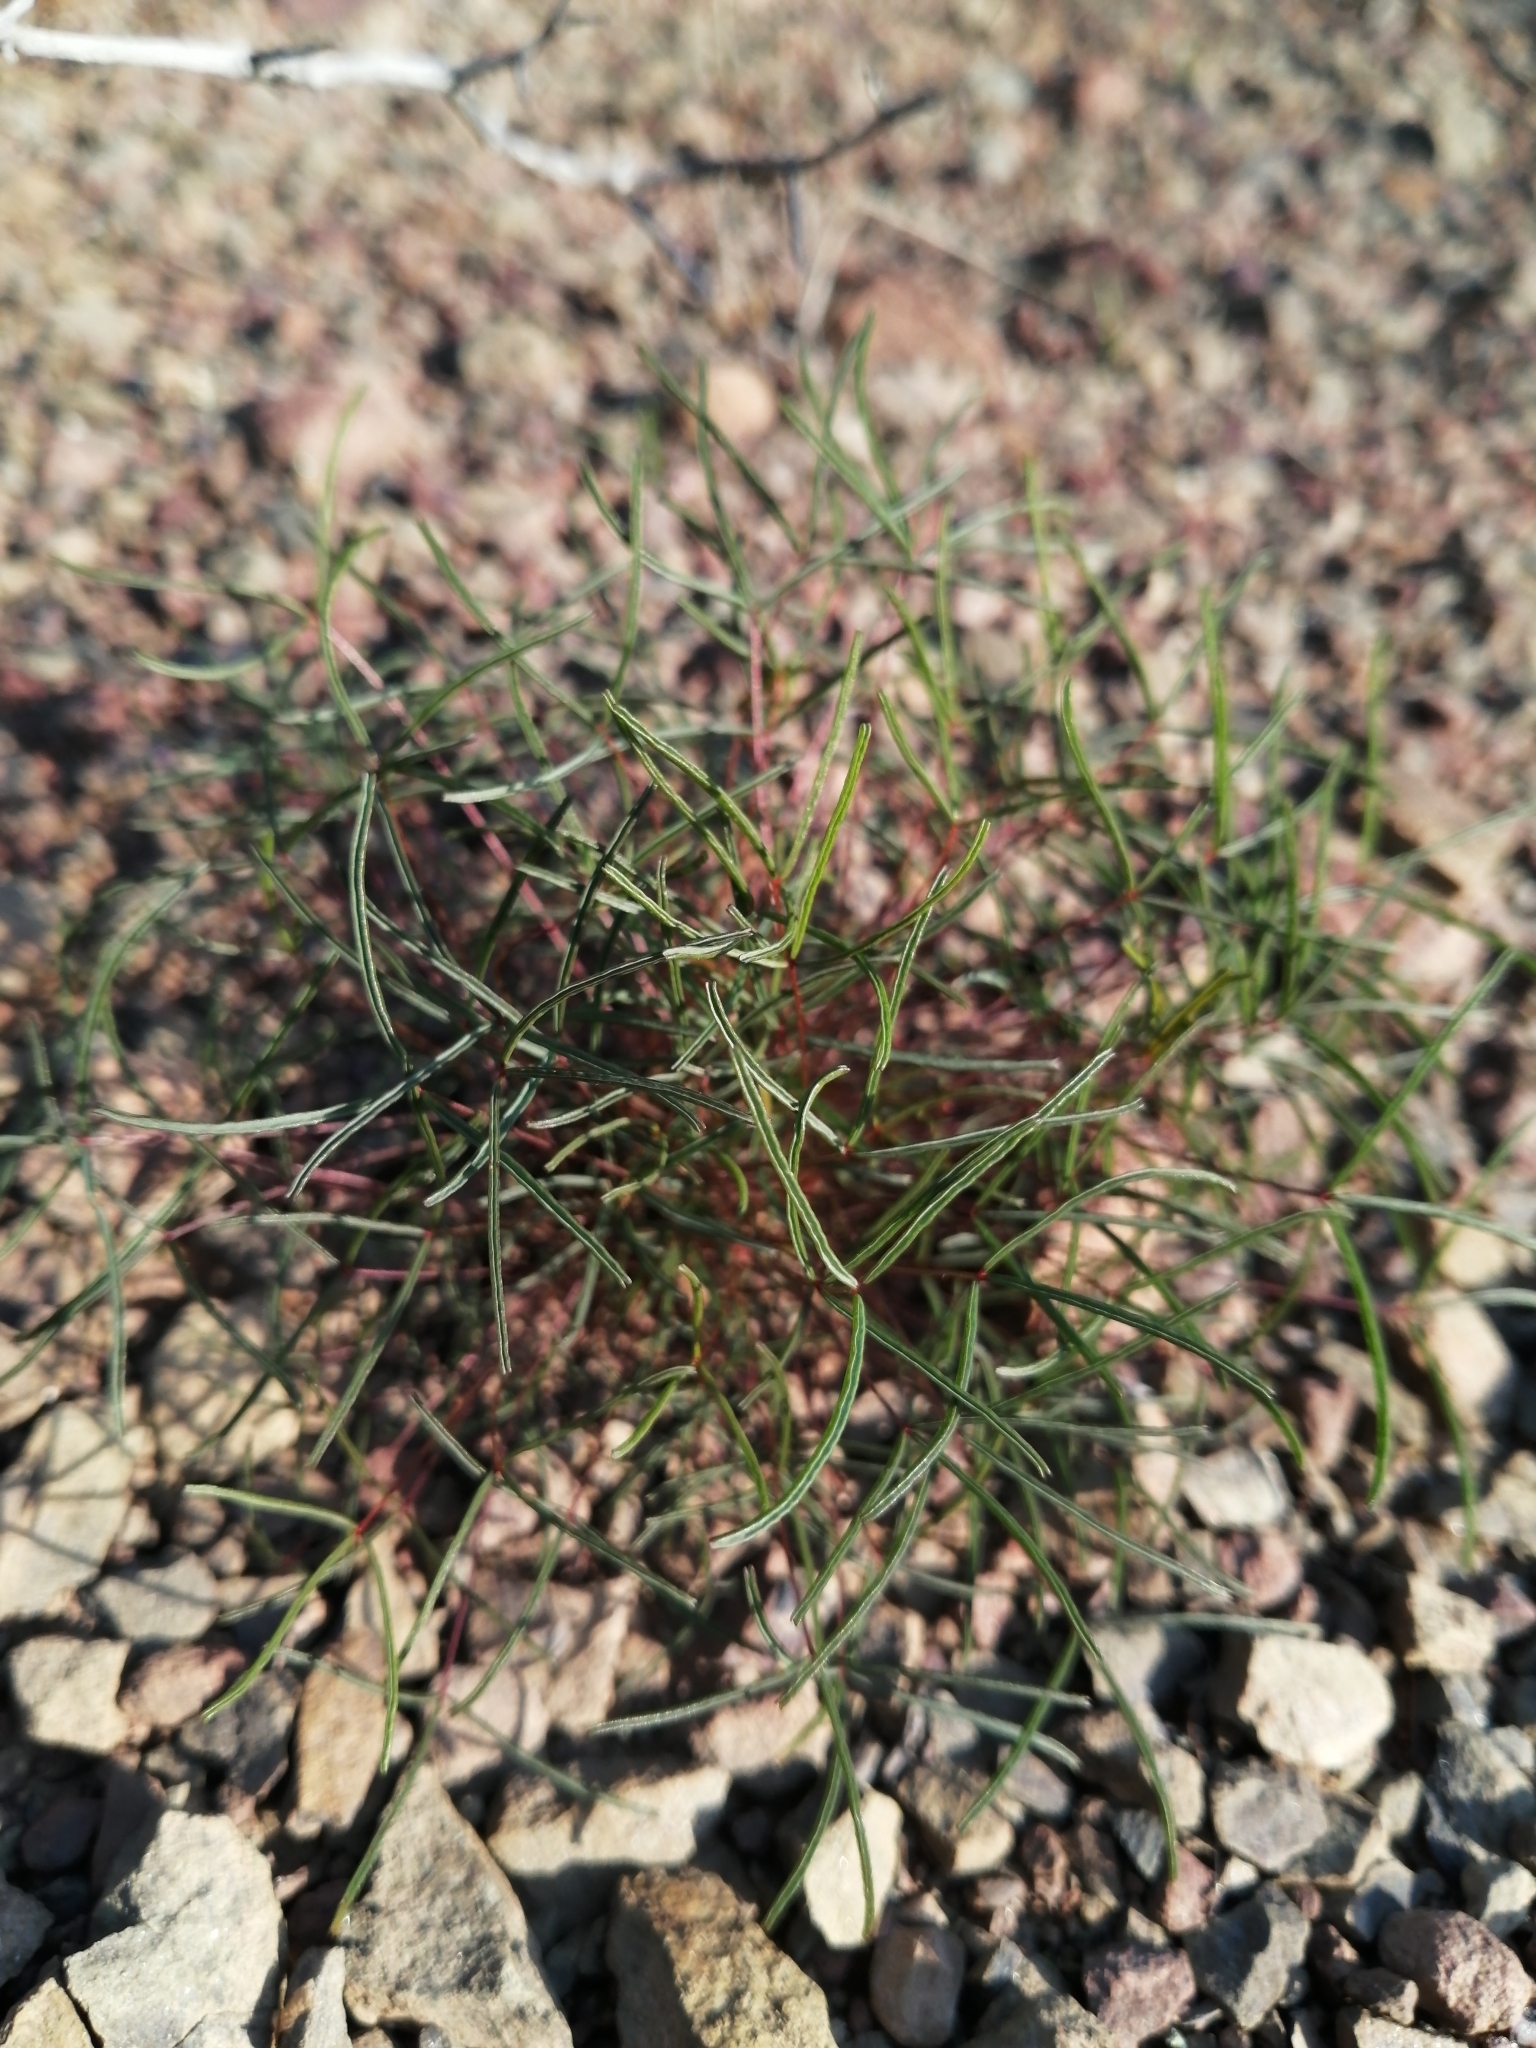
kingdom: Plantae
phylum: Tracheophyta
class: Magnoliopsida
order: Oxalidales
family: Oxalidaceae
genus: Oxalis
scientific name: Oxalis leptogramma
